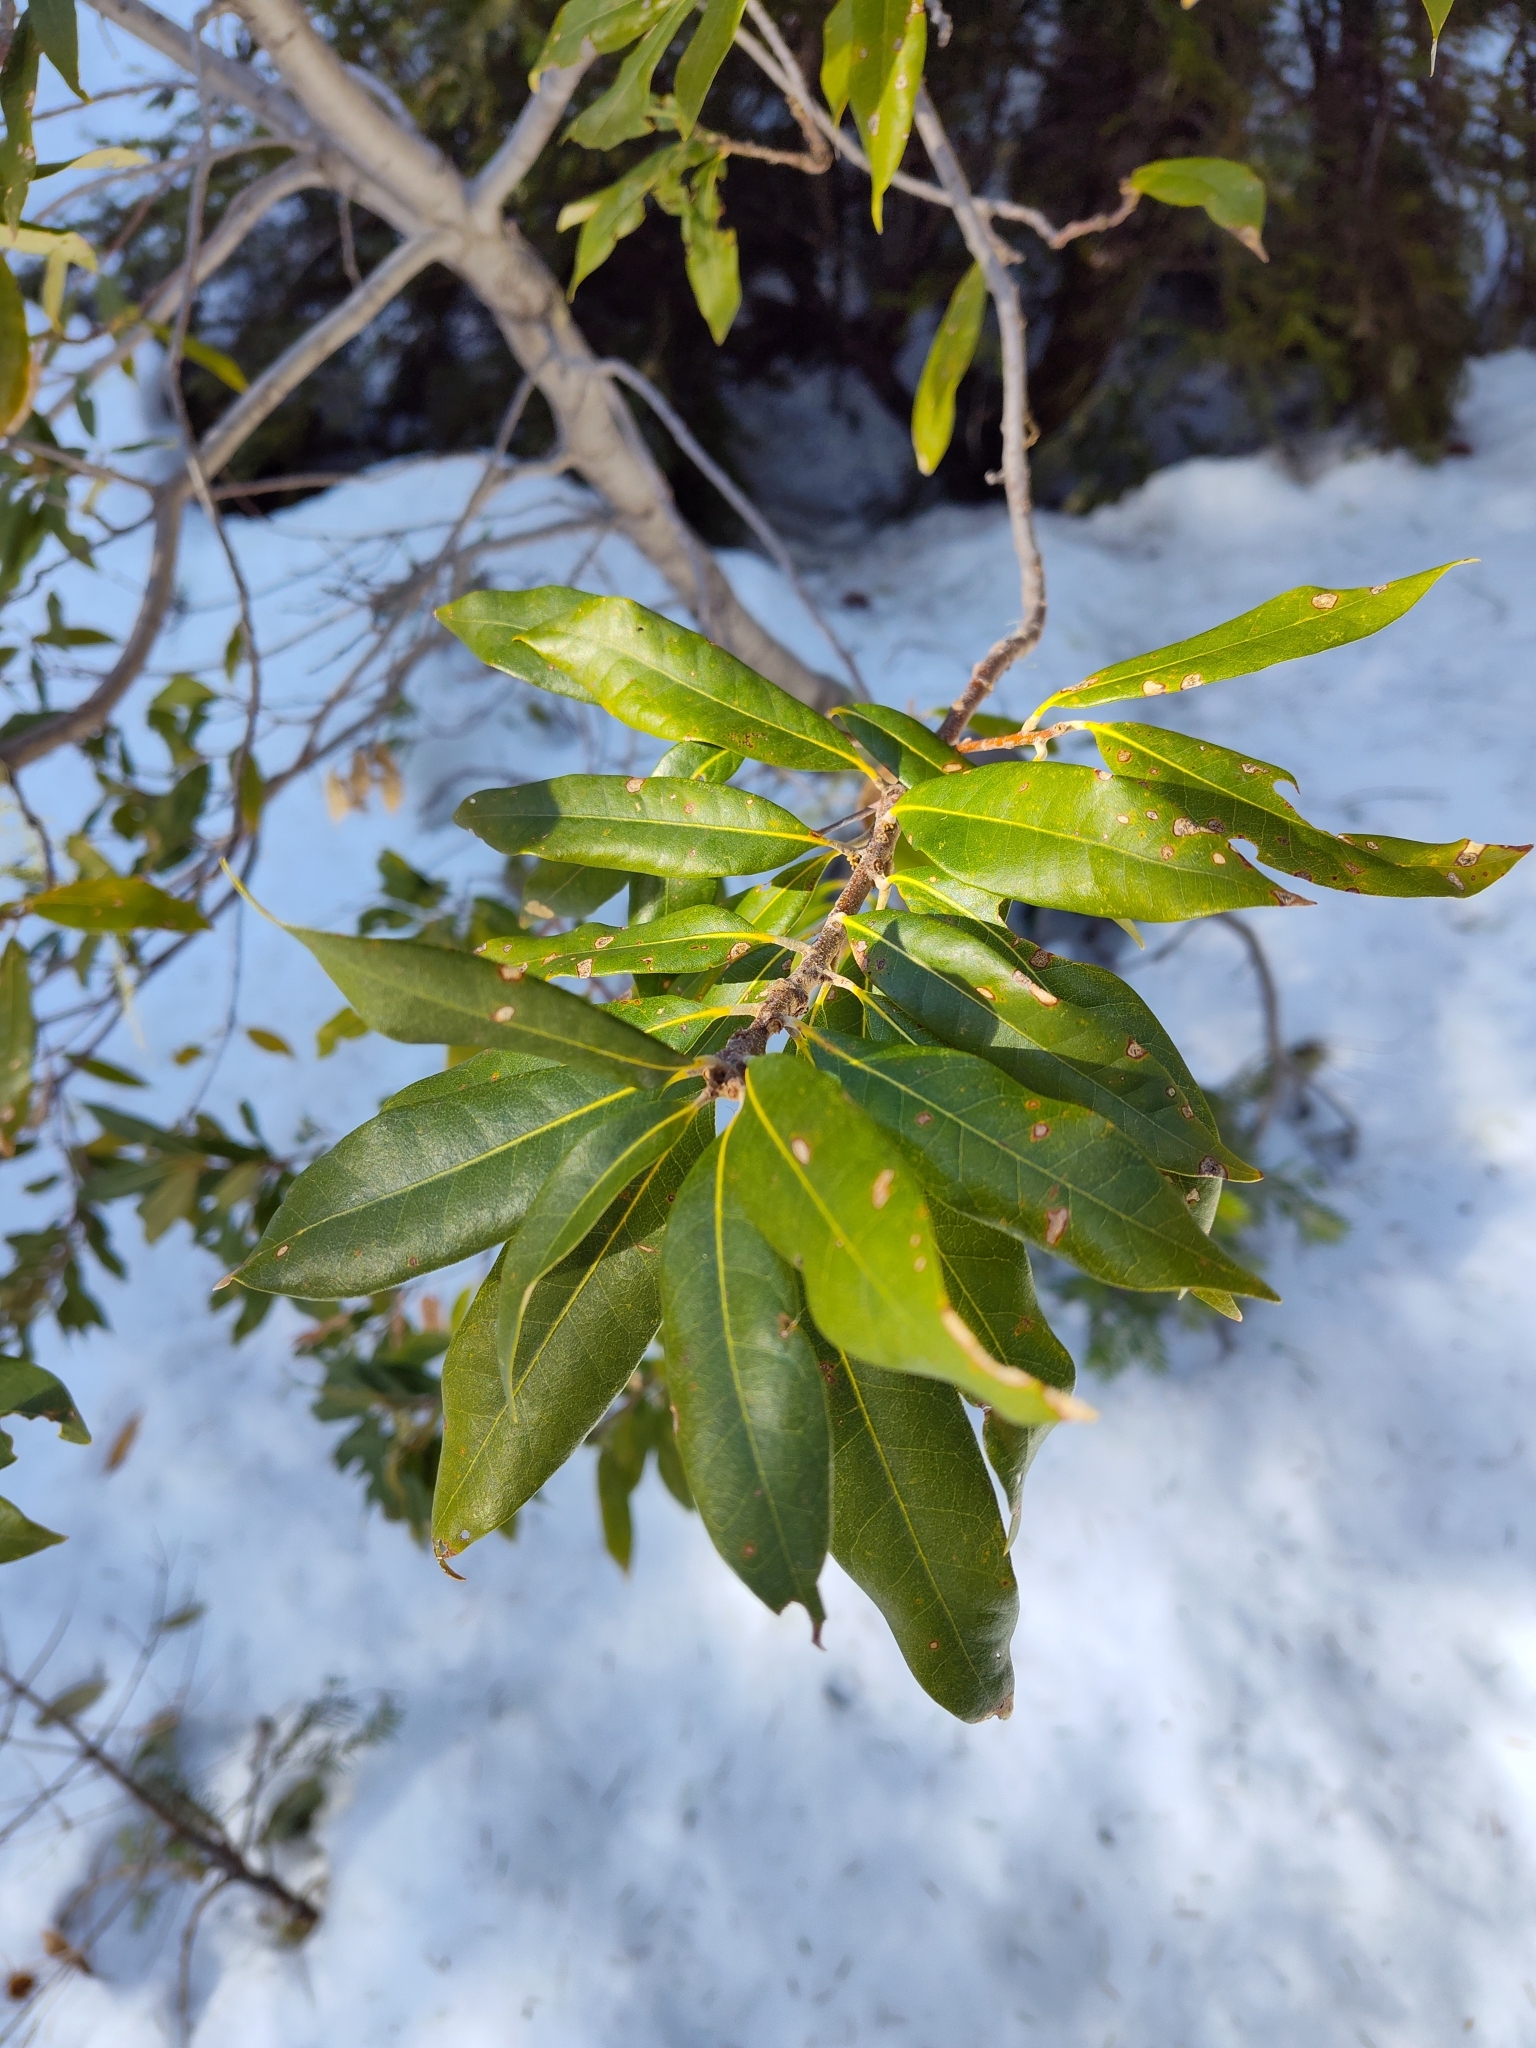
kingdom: Plantae
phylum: Tracheophyta
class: Magnoliopsida
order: Fagales
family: Fagaceae
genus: Chrysolepis
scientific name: Chrysolepis chrysophylla
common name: Giant chinquapin
